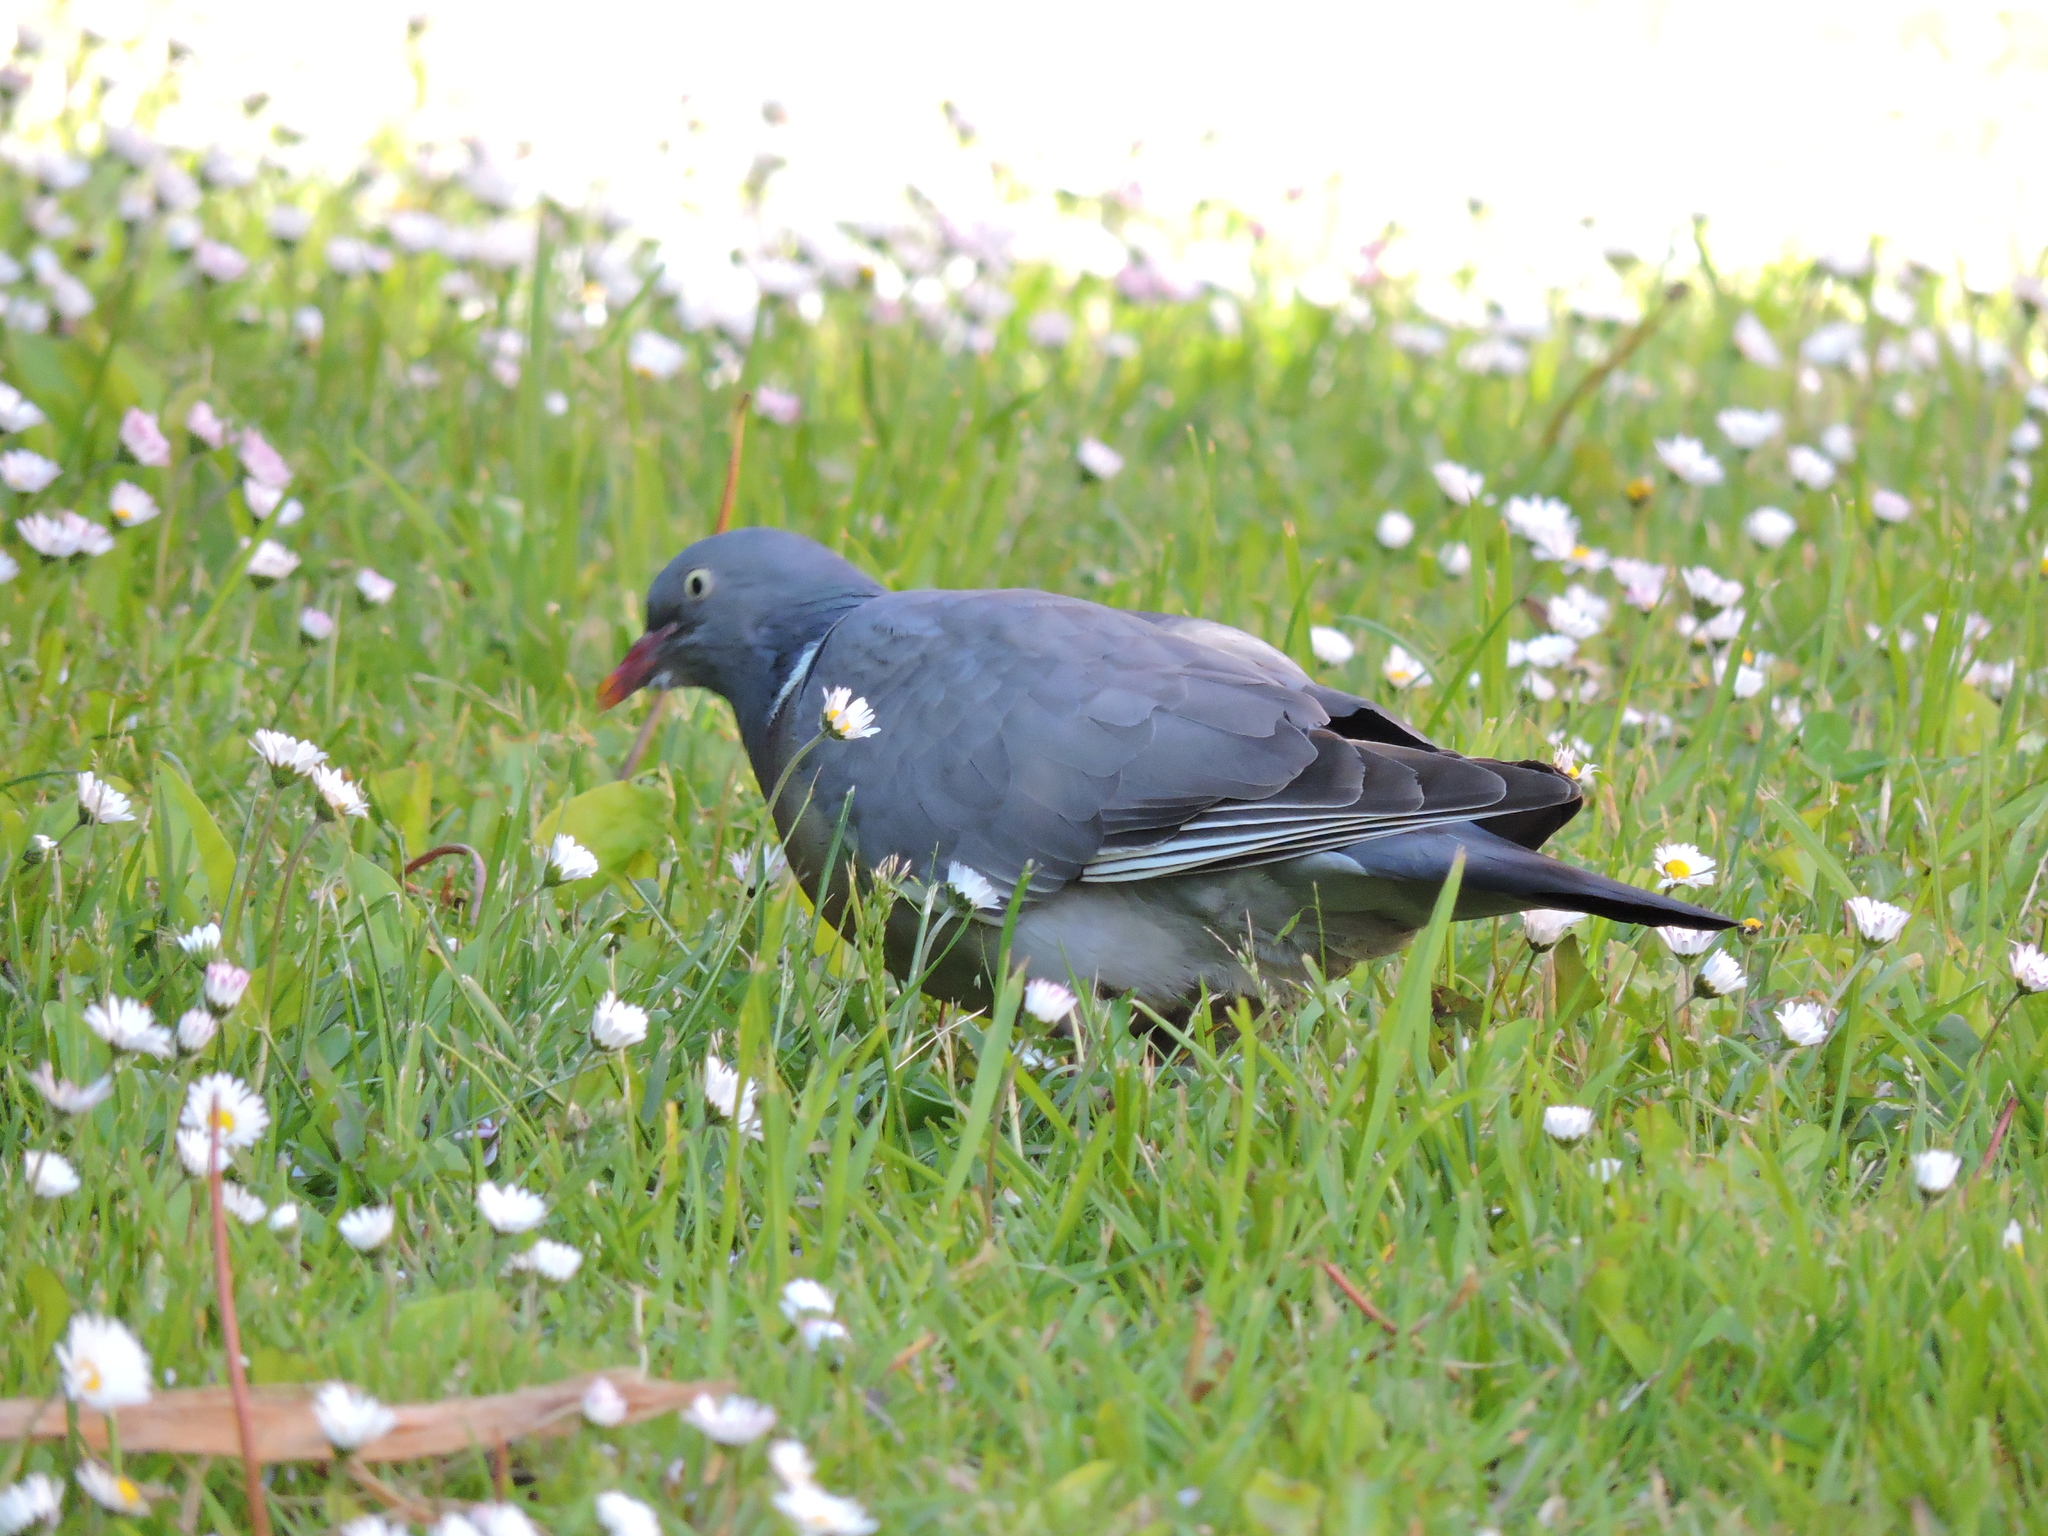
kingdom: Animalia
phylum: Chordata
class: Aves
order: Columbiformes
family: Columbidae
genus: Columba
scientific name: Columba palumbus
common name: Common wood pigeon
